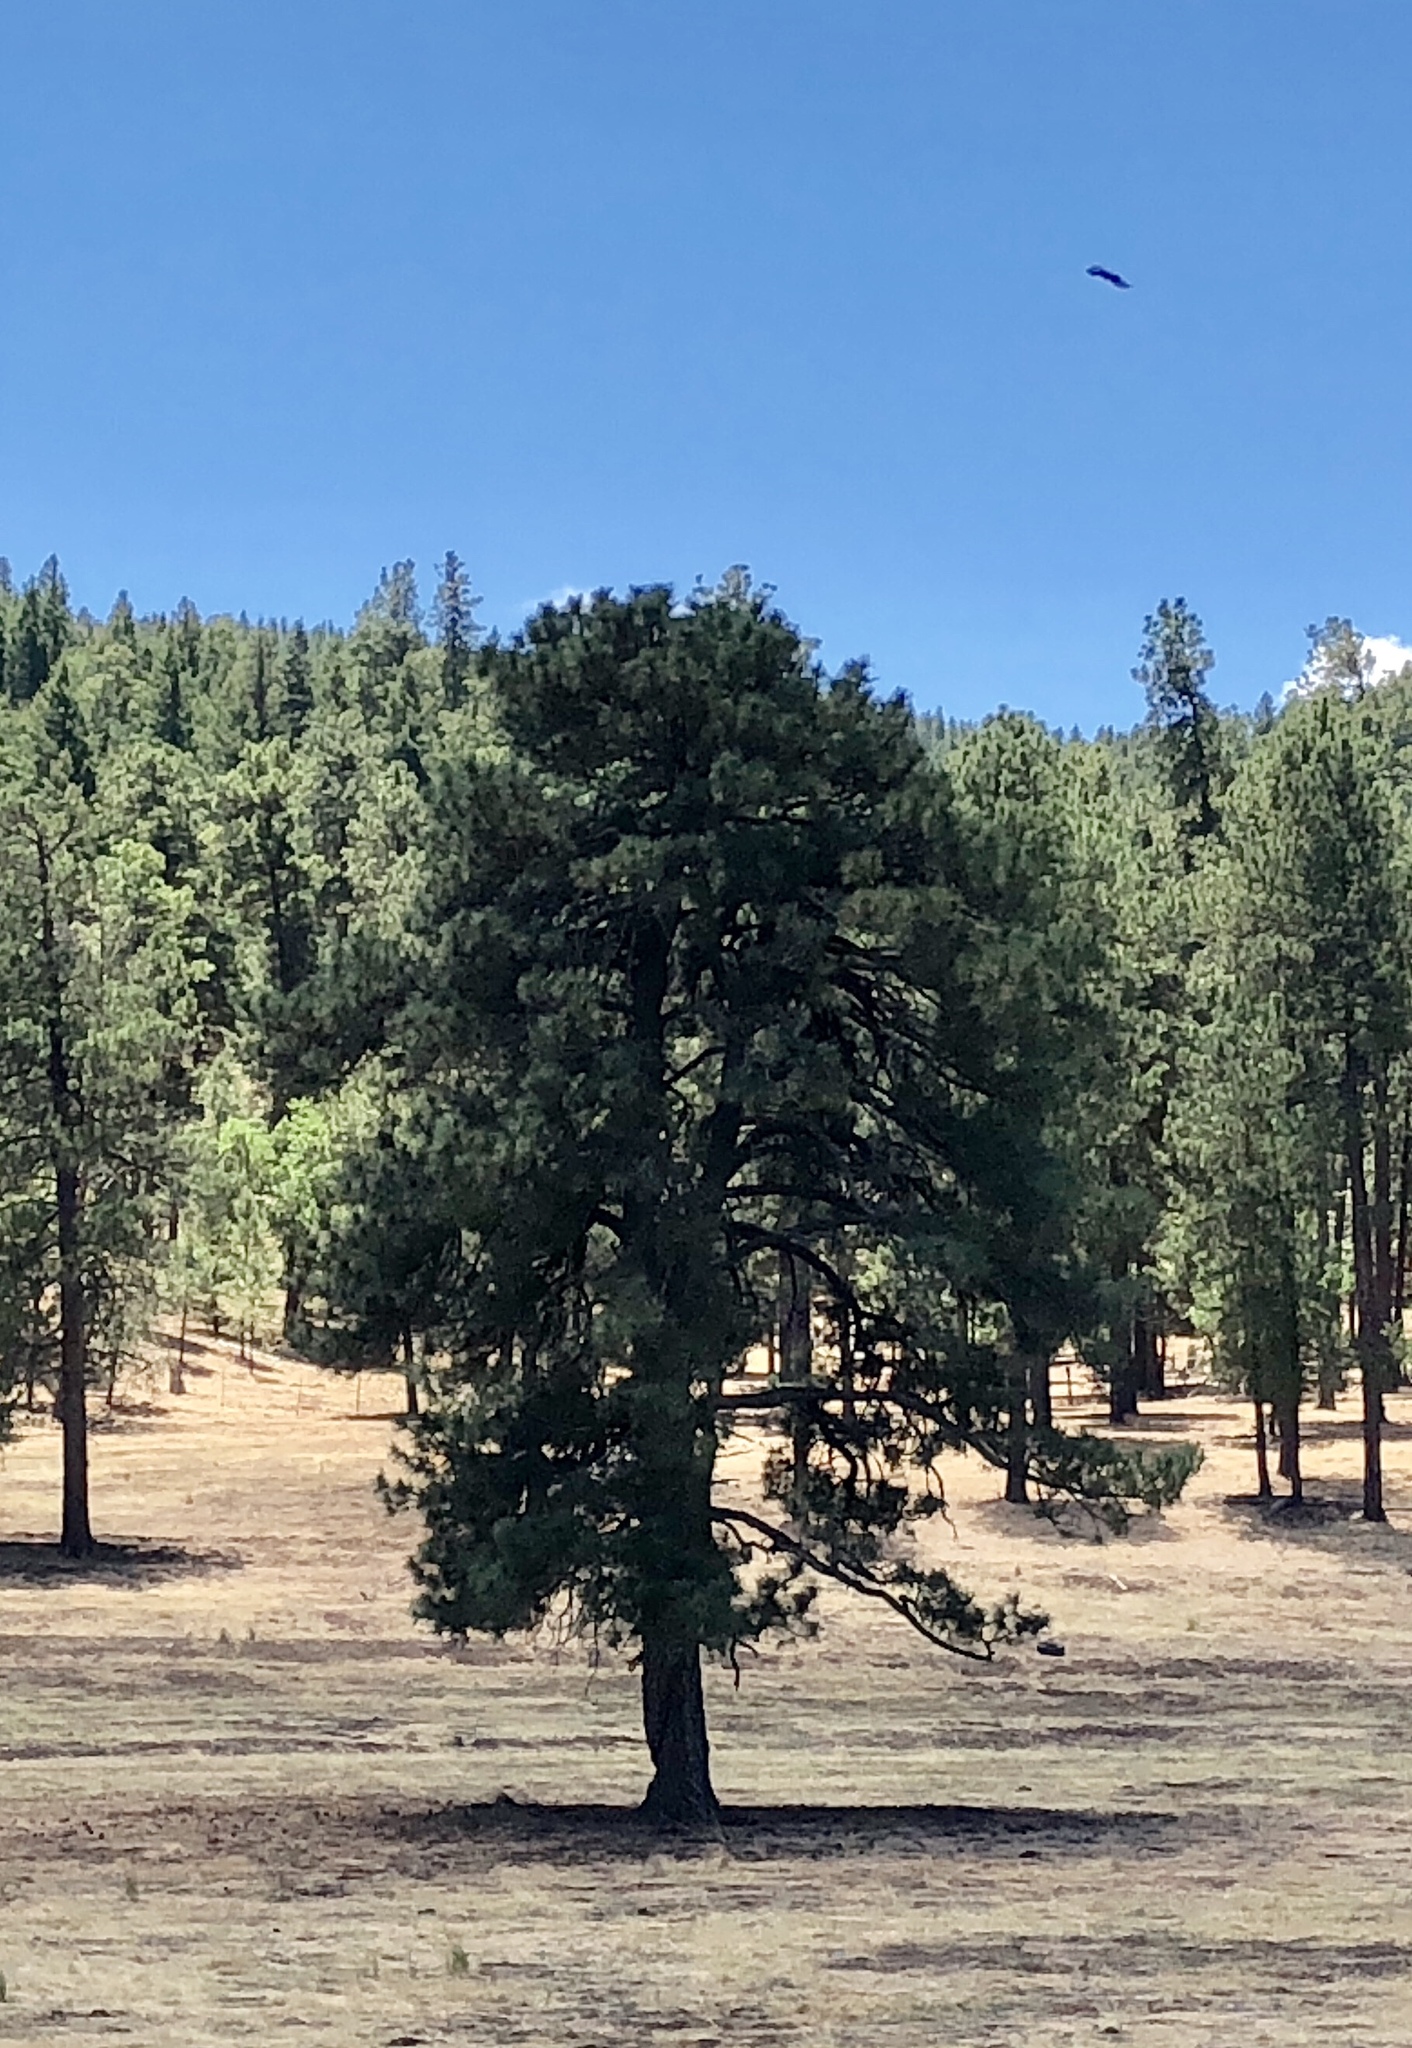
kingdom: Plantae
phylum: Tracheophyta
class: Pinopsida
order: Pinales
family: Pinaceae
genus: Pinus
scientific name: Pinus ponderosa
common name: Western yellow-pine
